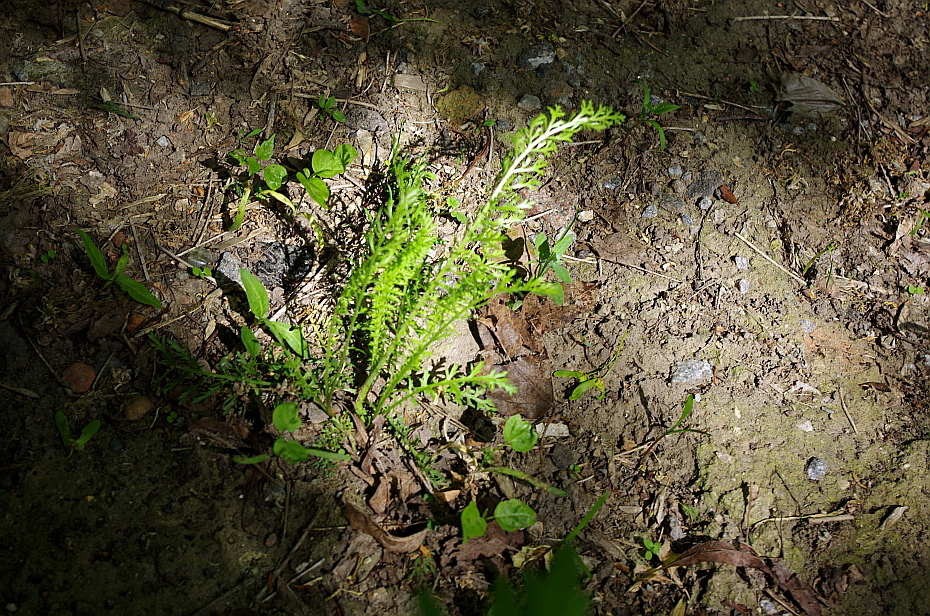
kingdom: Plantae
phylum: Tracheophyta
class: Magnoliopsida
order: Asterales
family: Asteraceae
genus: Achillea
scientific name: Achillea millefolium
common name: Yarrow
